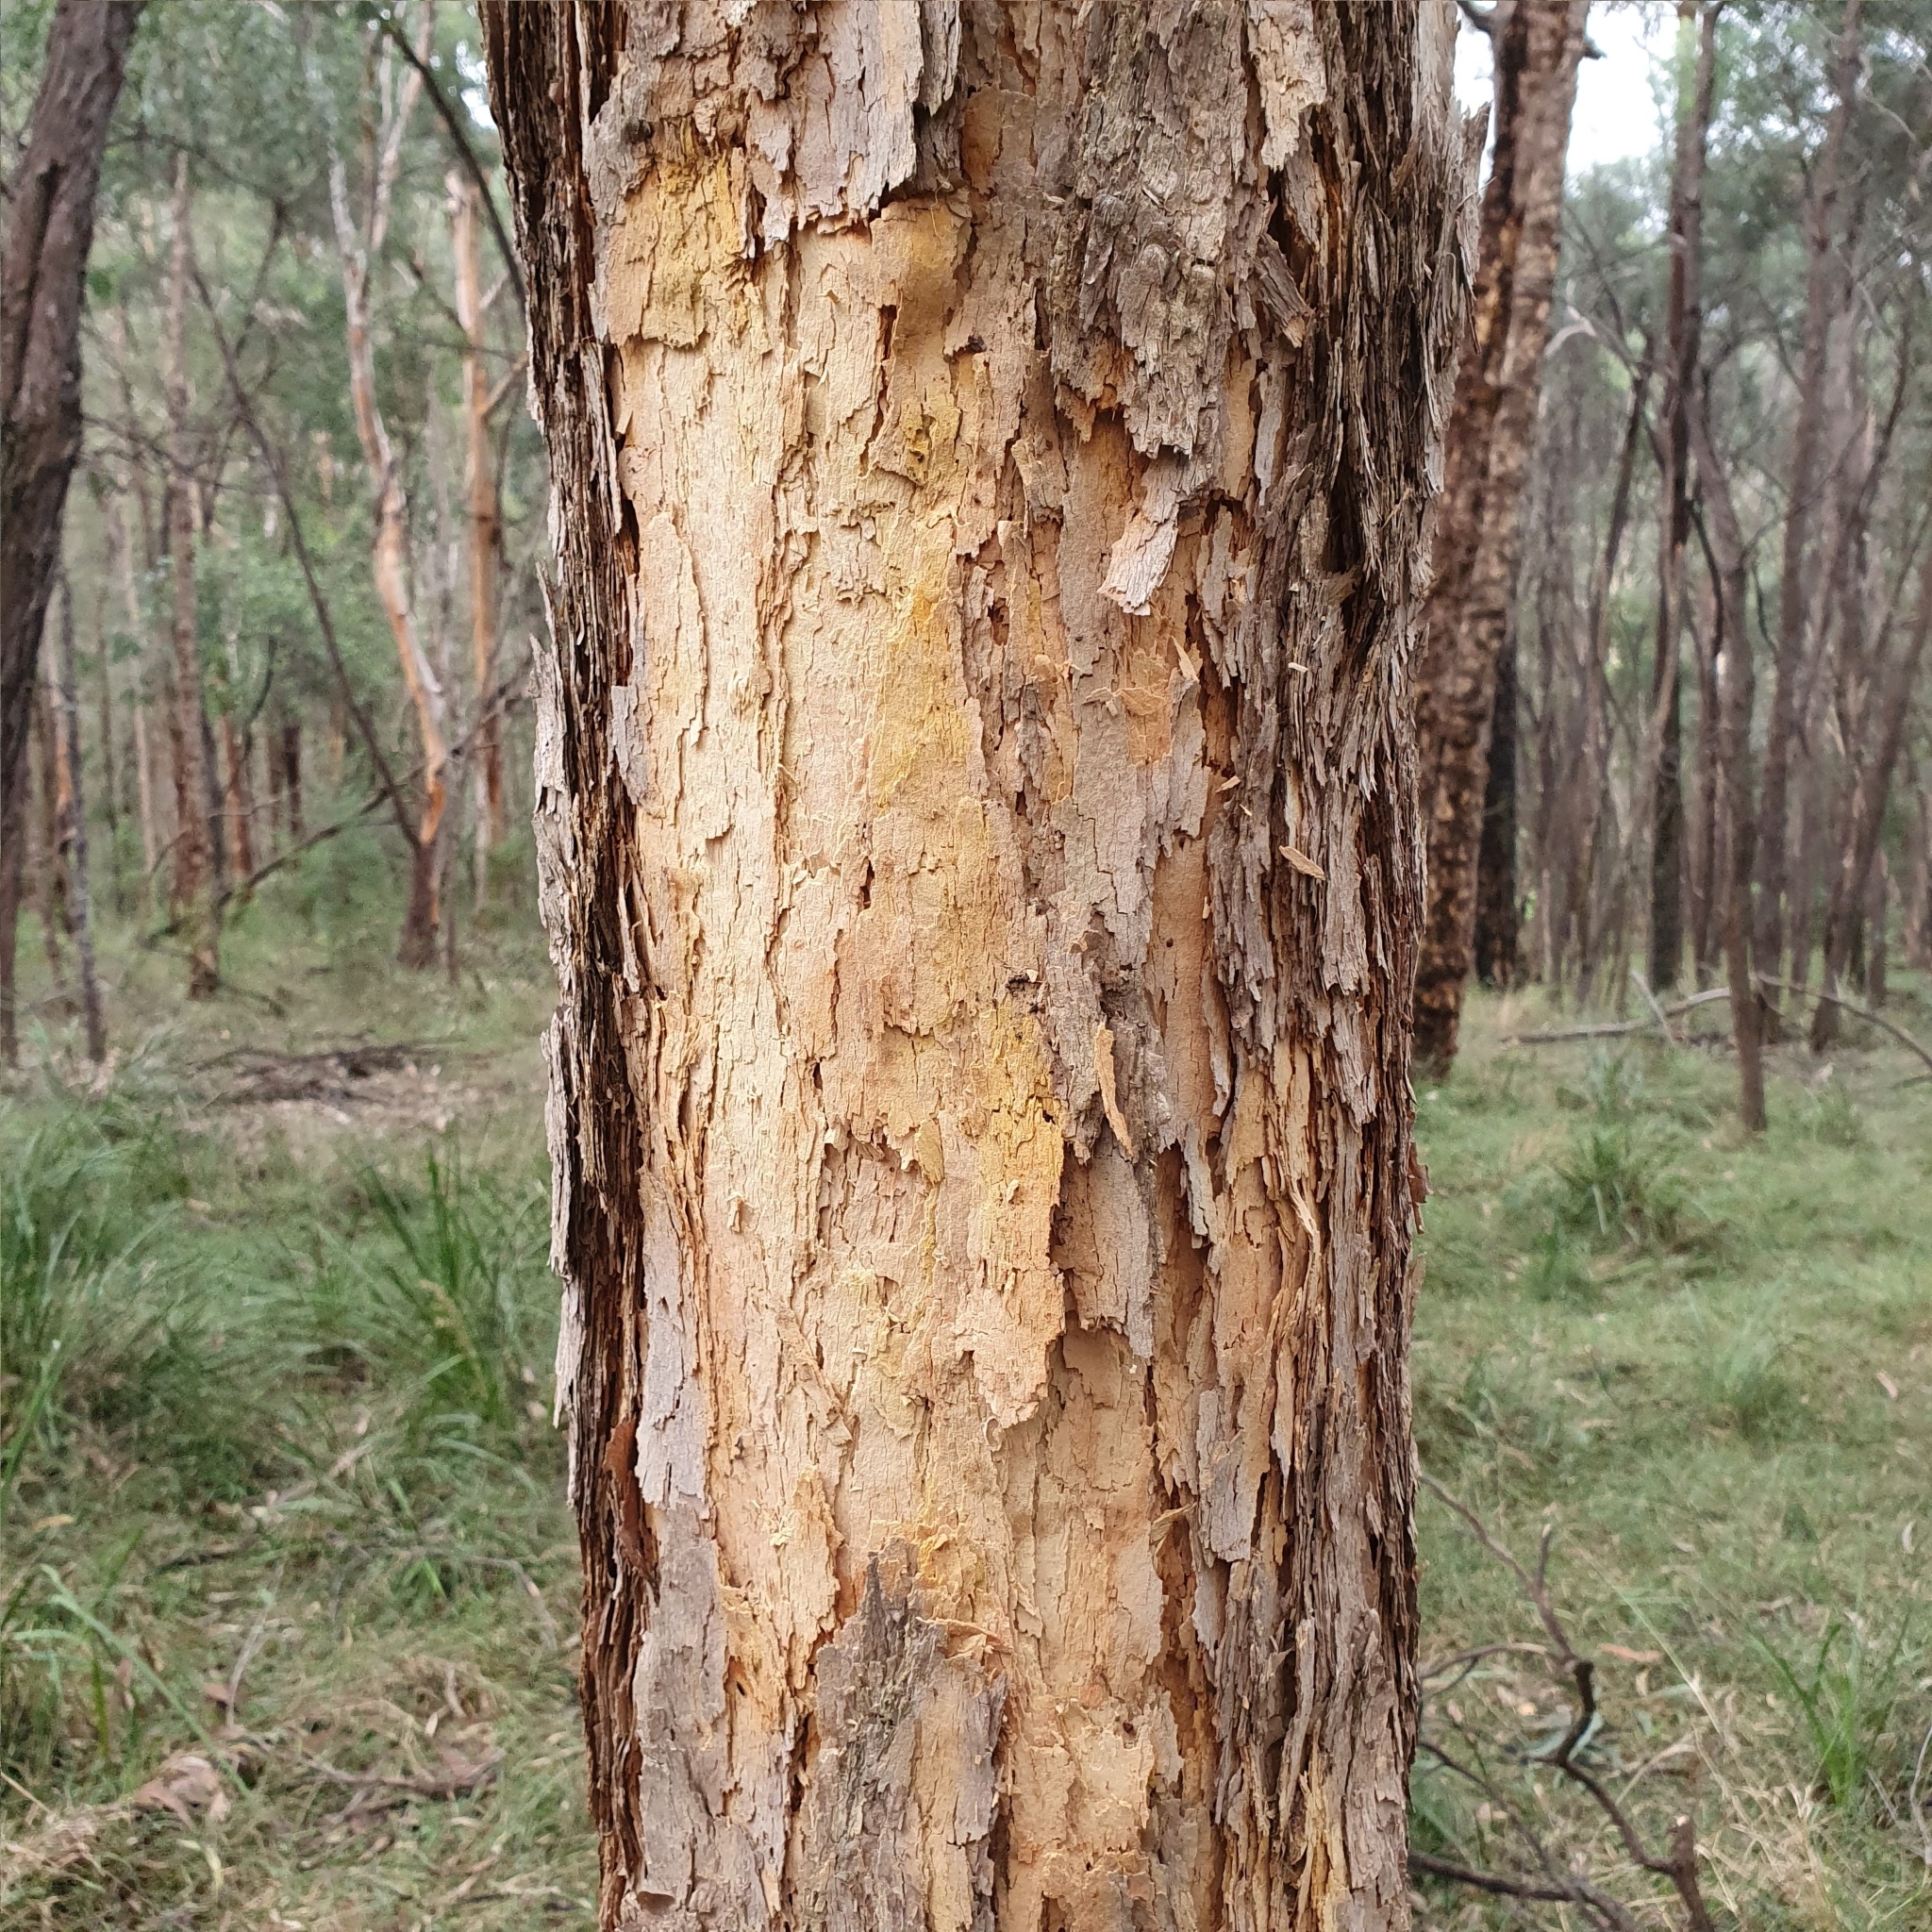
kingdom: Plantae
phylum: Tracheophyta
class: Magnoliopsida
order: Myrtales
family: Myrtaceae
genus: Corymbia
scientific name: Corymbia eximia
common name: Yellow bloodwood
